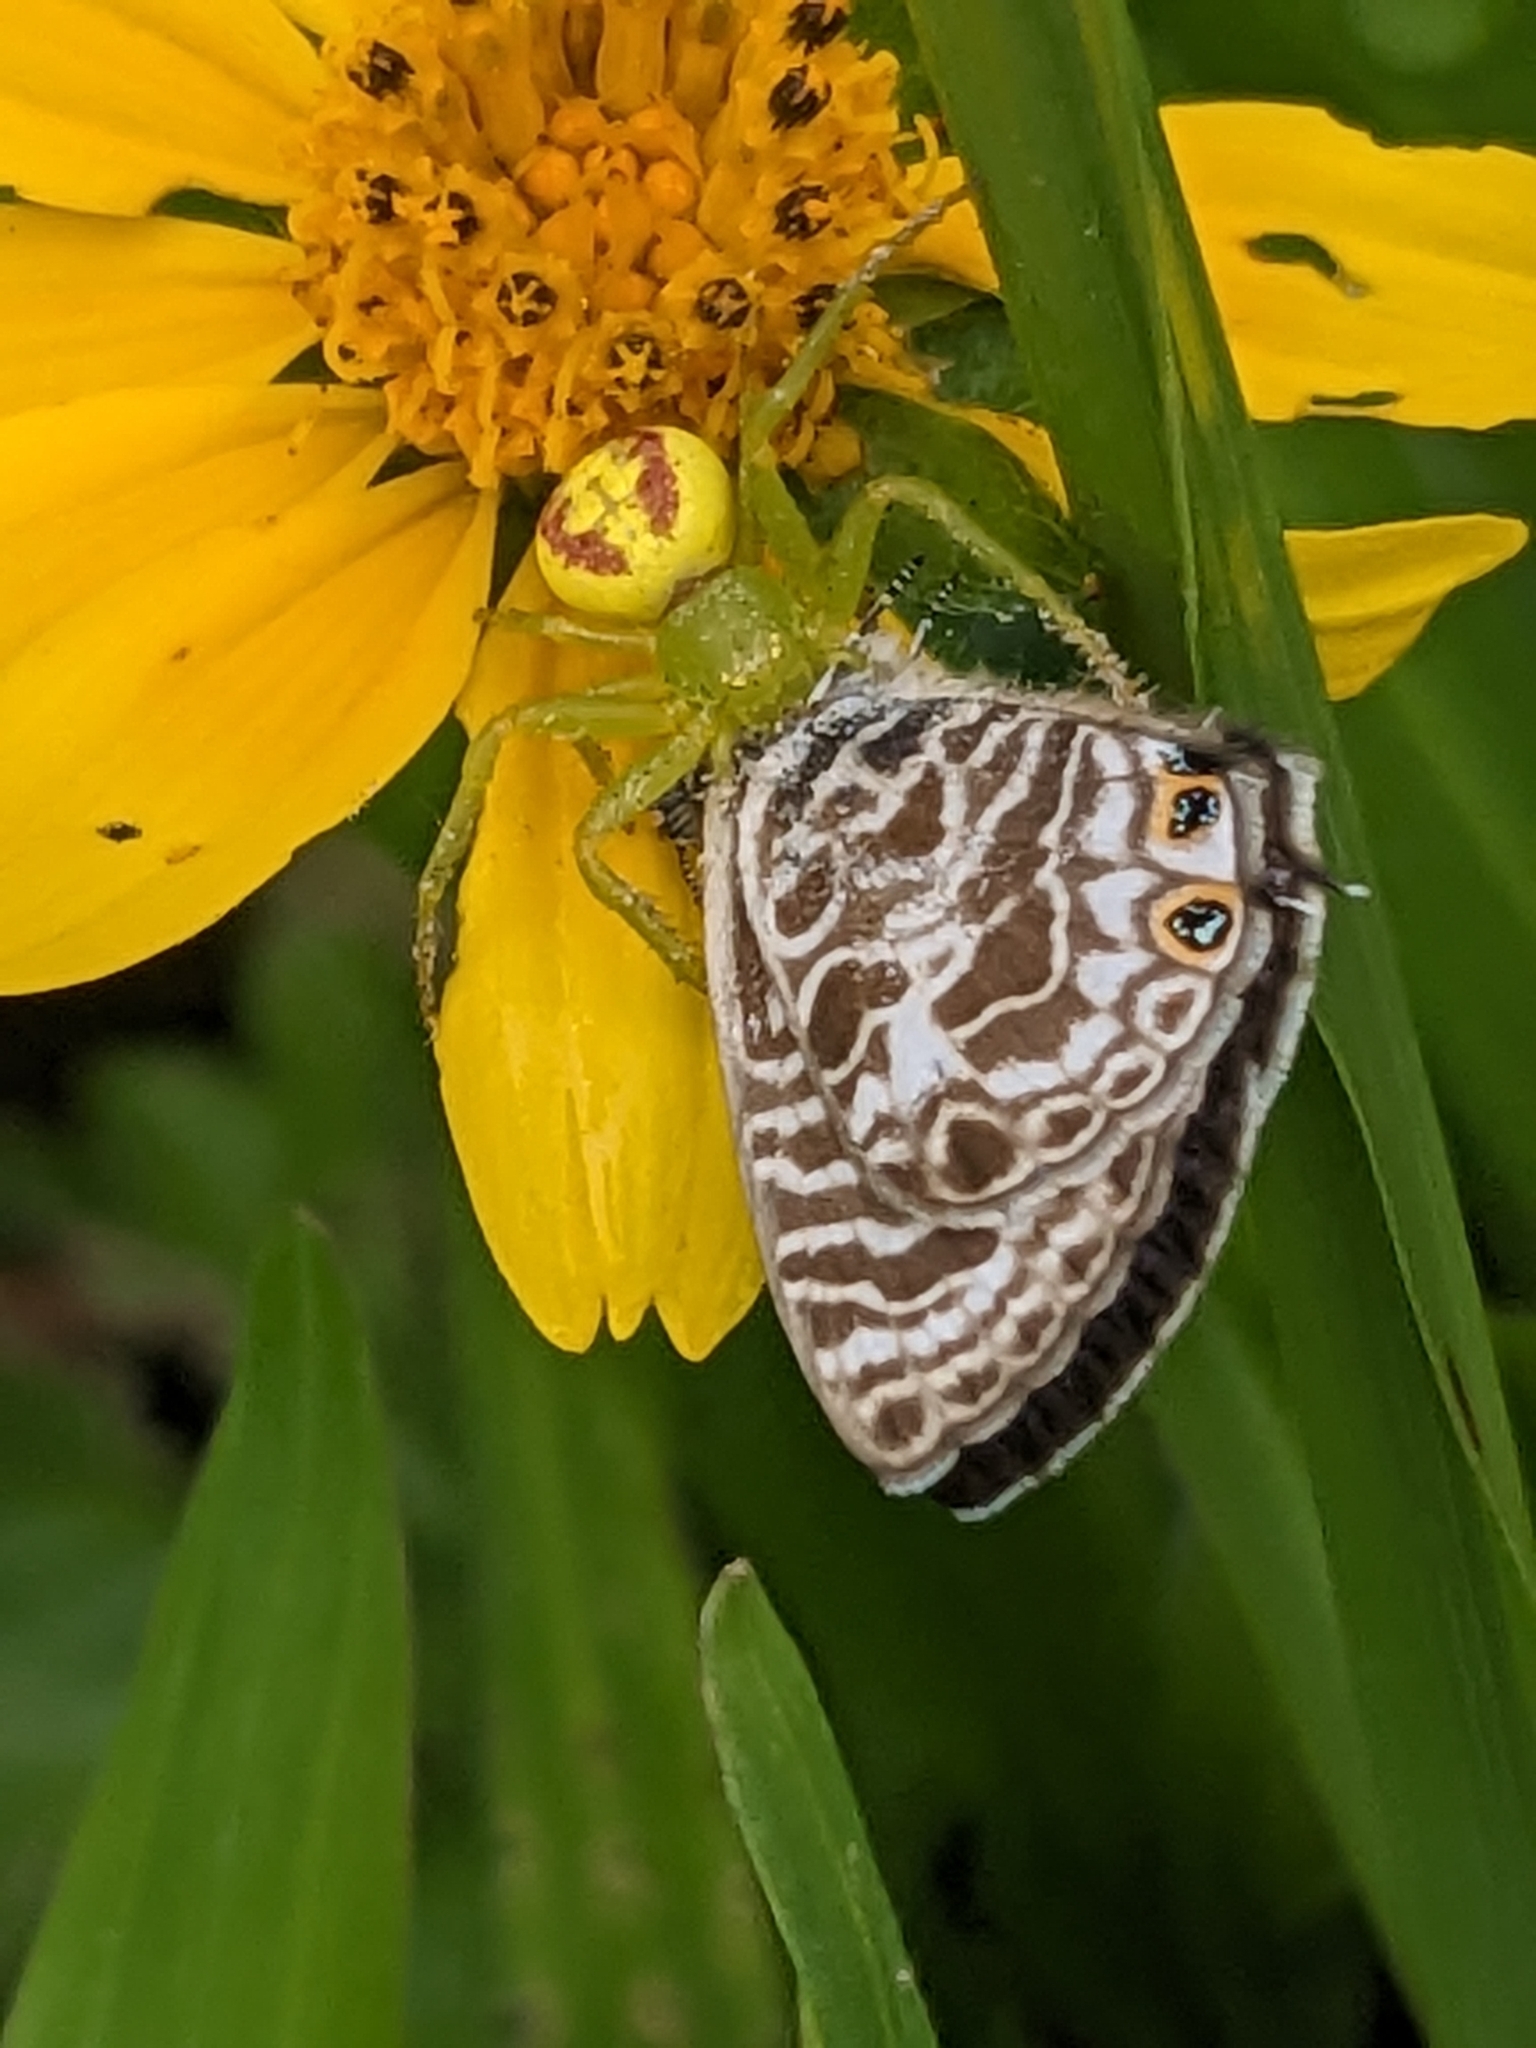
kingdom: Animalia
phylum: Arthropoda
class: Insecta
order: Lepidoptera
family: Lycaenidae
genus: Leptotes
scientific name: Leptotes plinius
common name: Zebra blue
